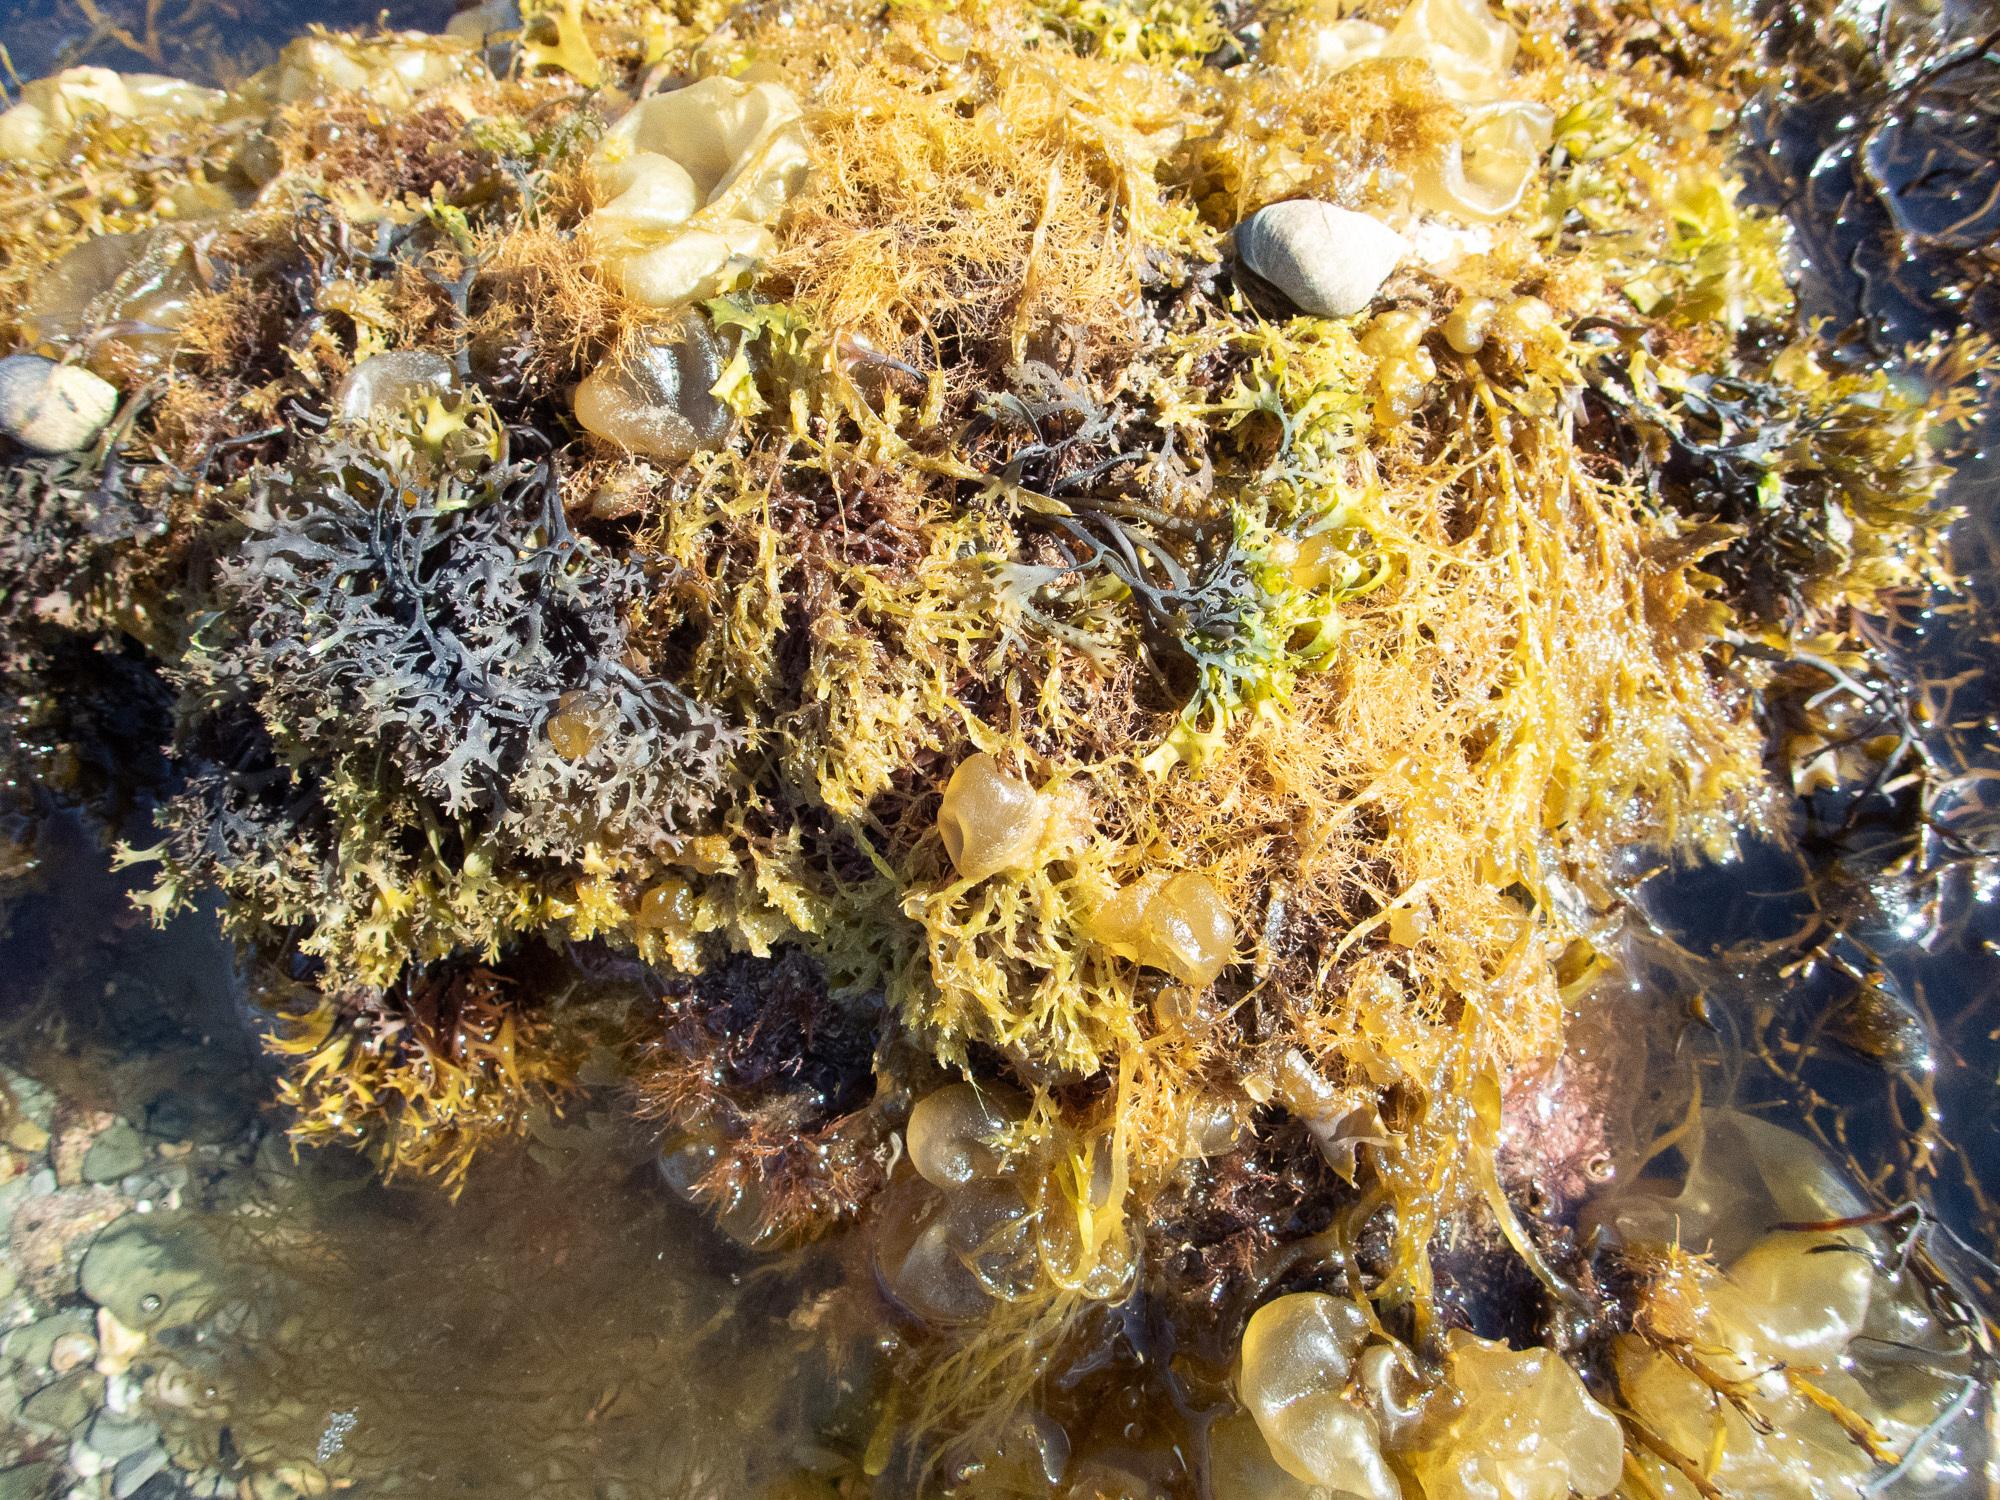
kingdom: Chromista
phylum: Ochrophyta
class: Phaeophyceae
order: Scytosiphonales
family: Scytosiphonaceae
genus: Colpomenia
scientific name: Colpomenia peregrina
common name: Oyster thief
